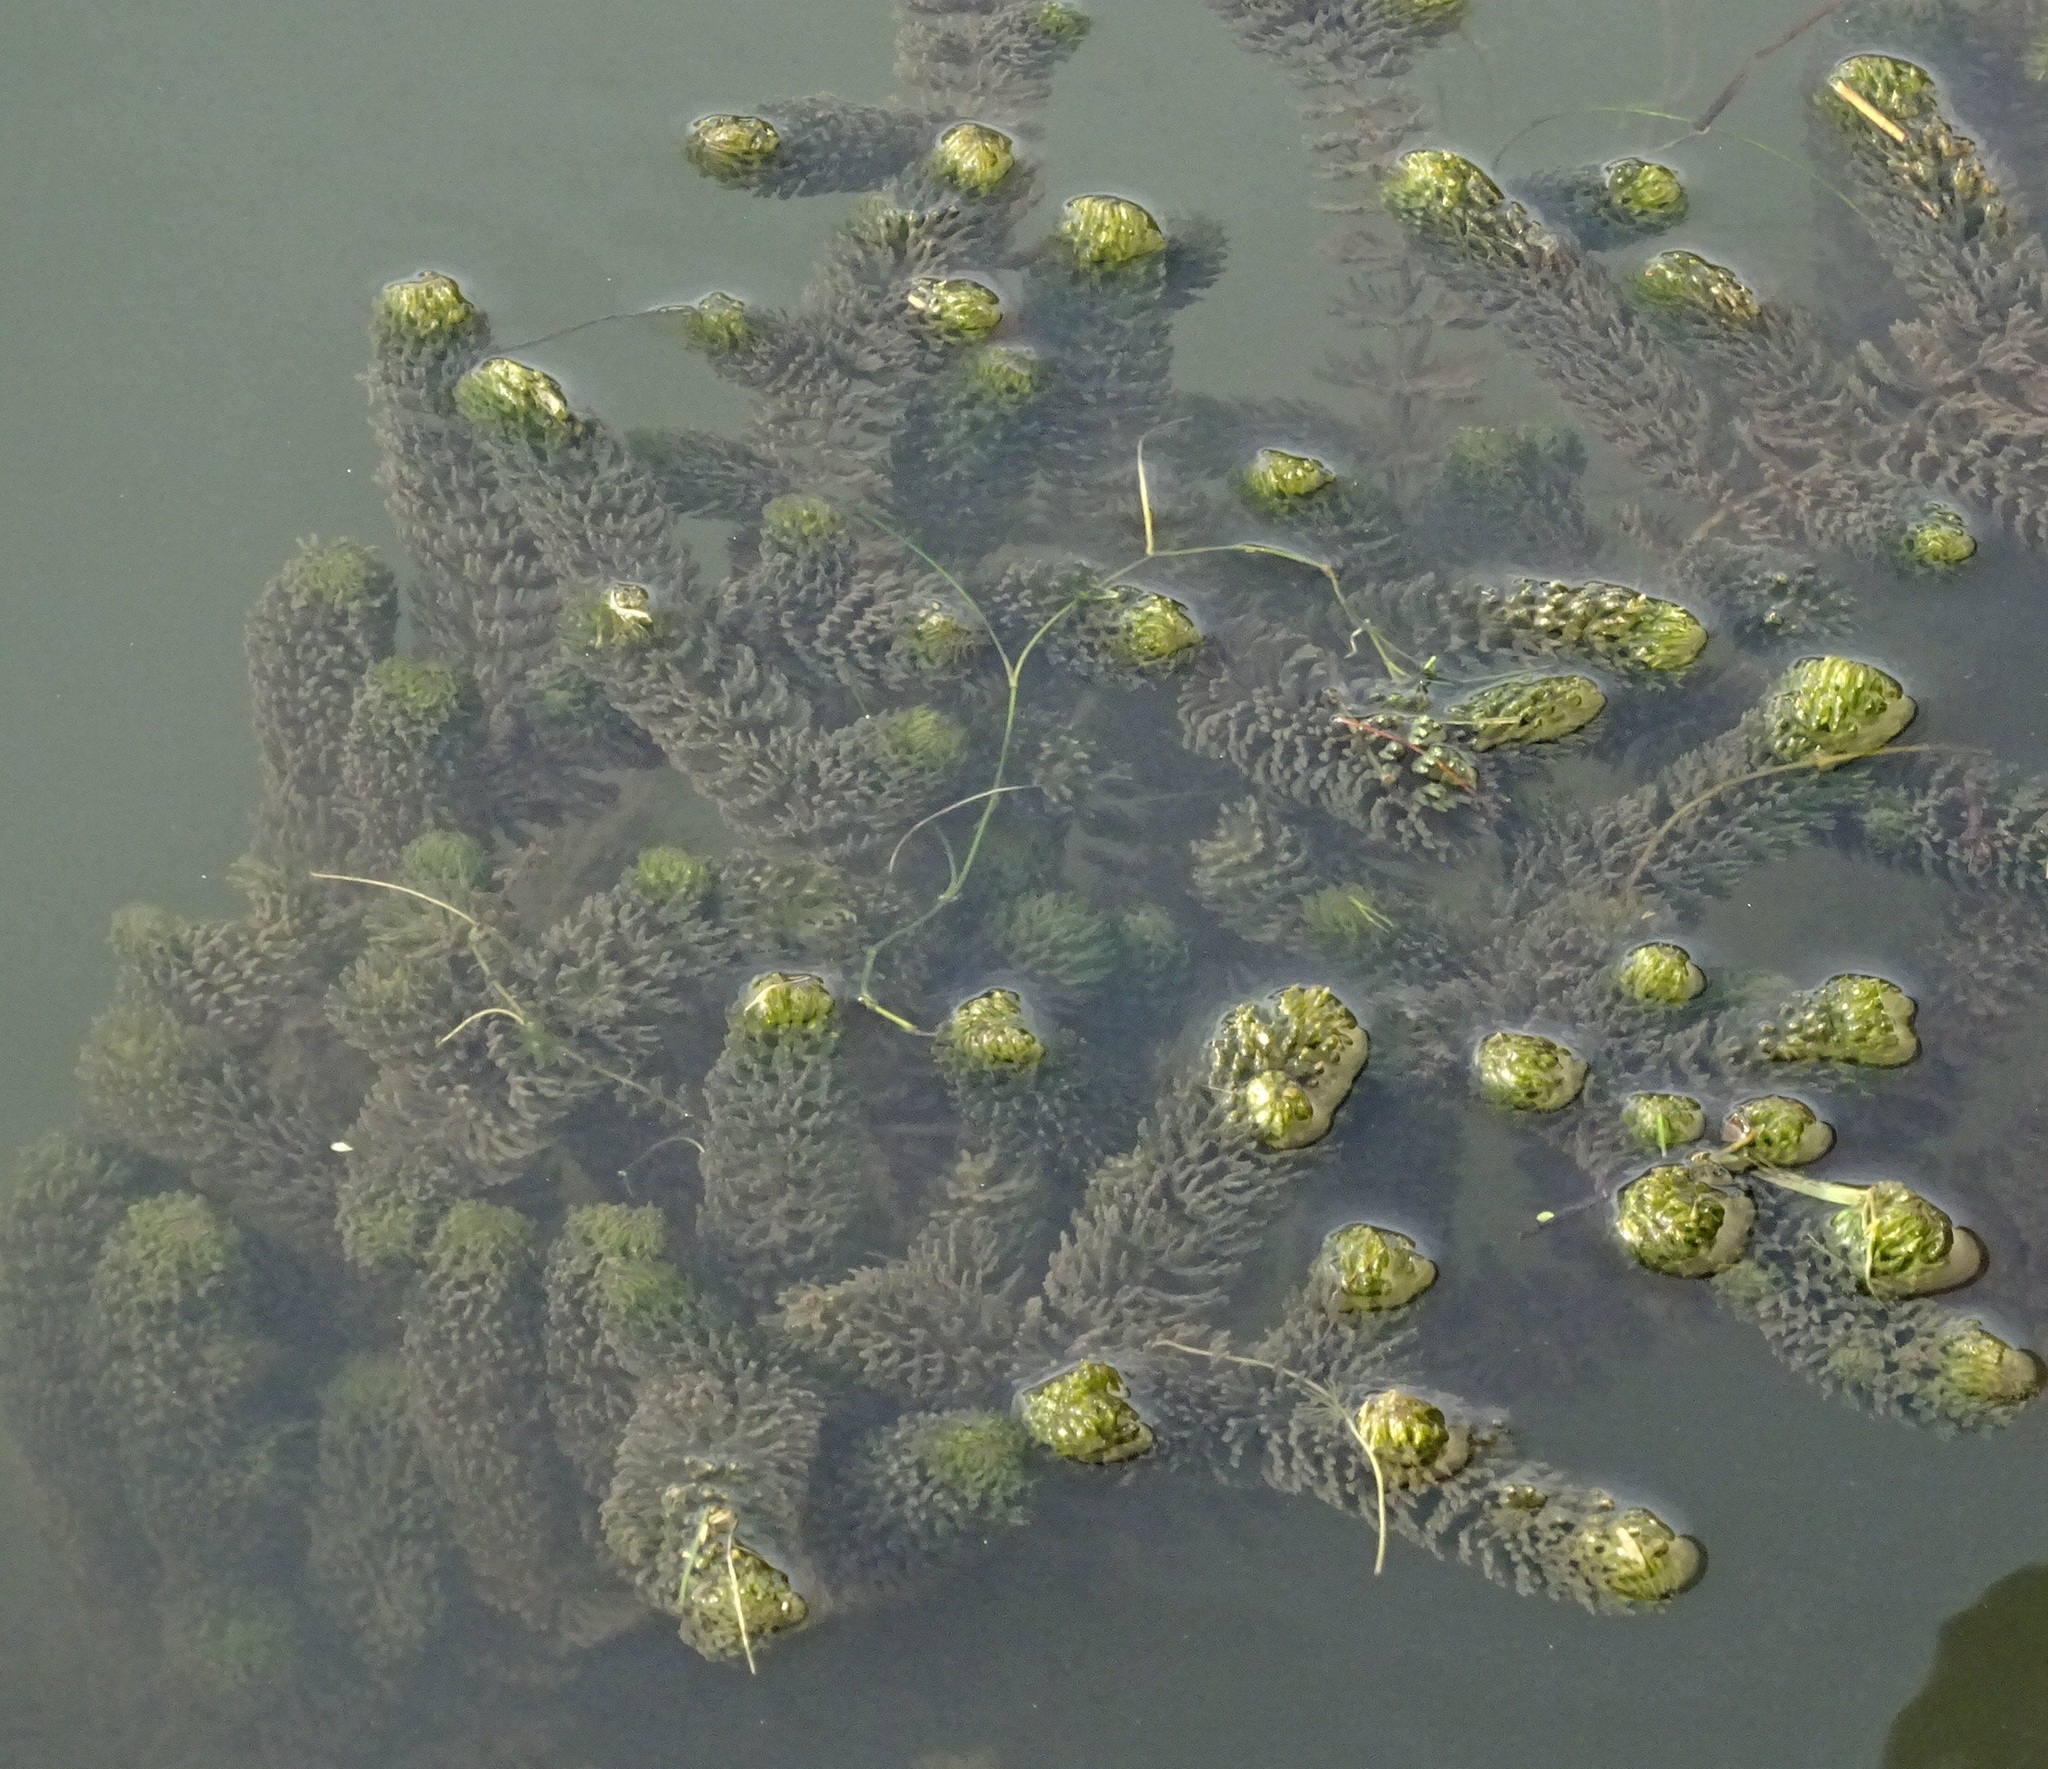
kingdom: Plantae
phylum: Tracheophyta
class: Magnoliopsida
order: Ceratophyllales
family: Ceratophyllaceae
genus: Ceratophyllum
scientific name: Ceratophyllum demersum
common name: Rigid hornwort
